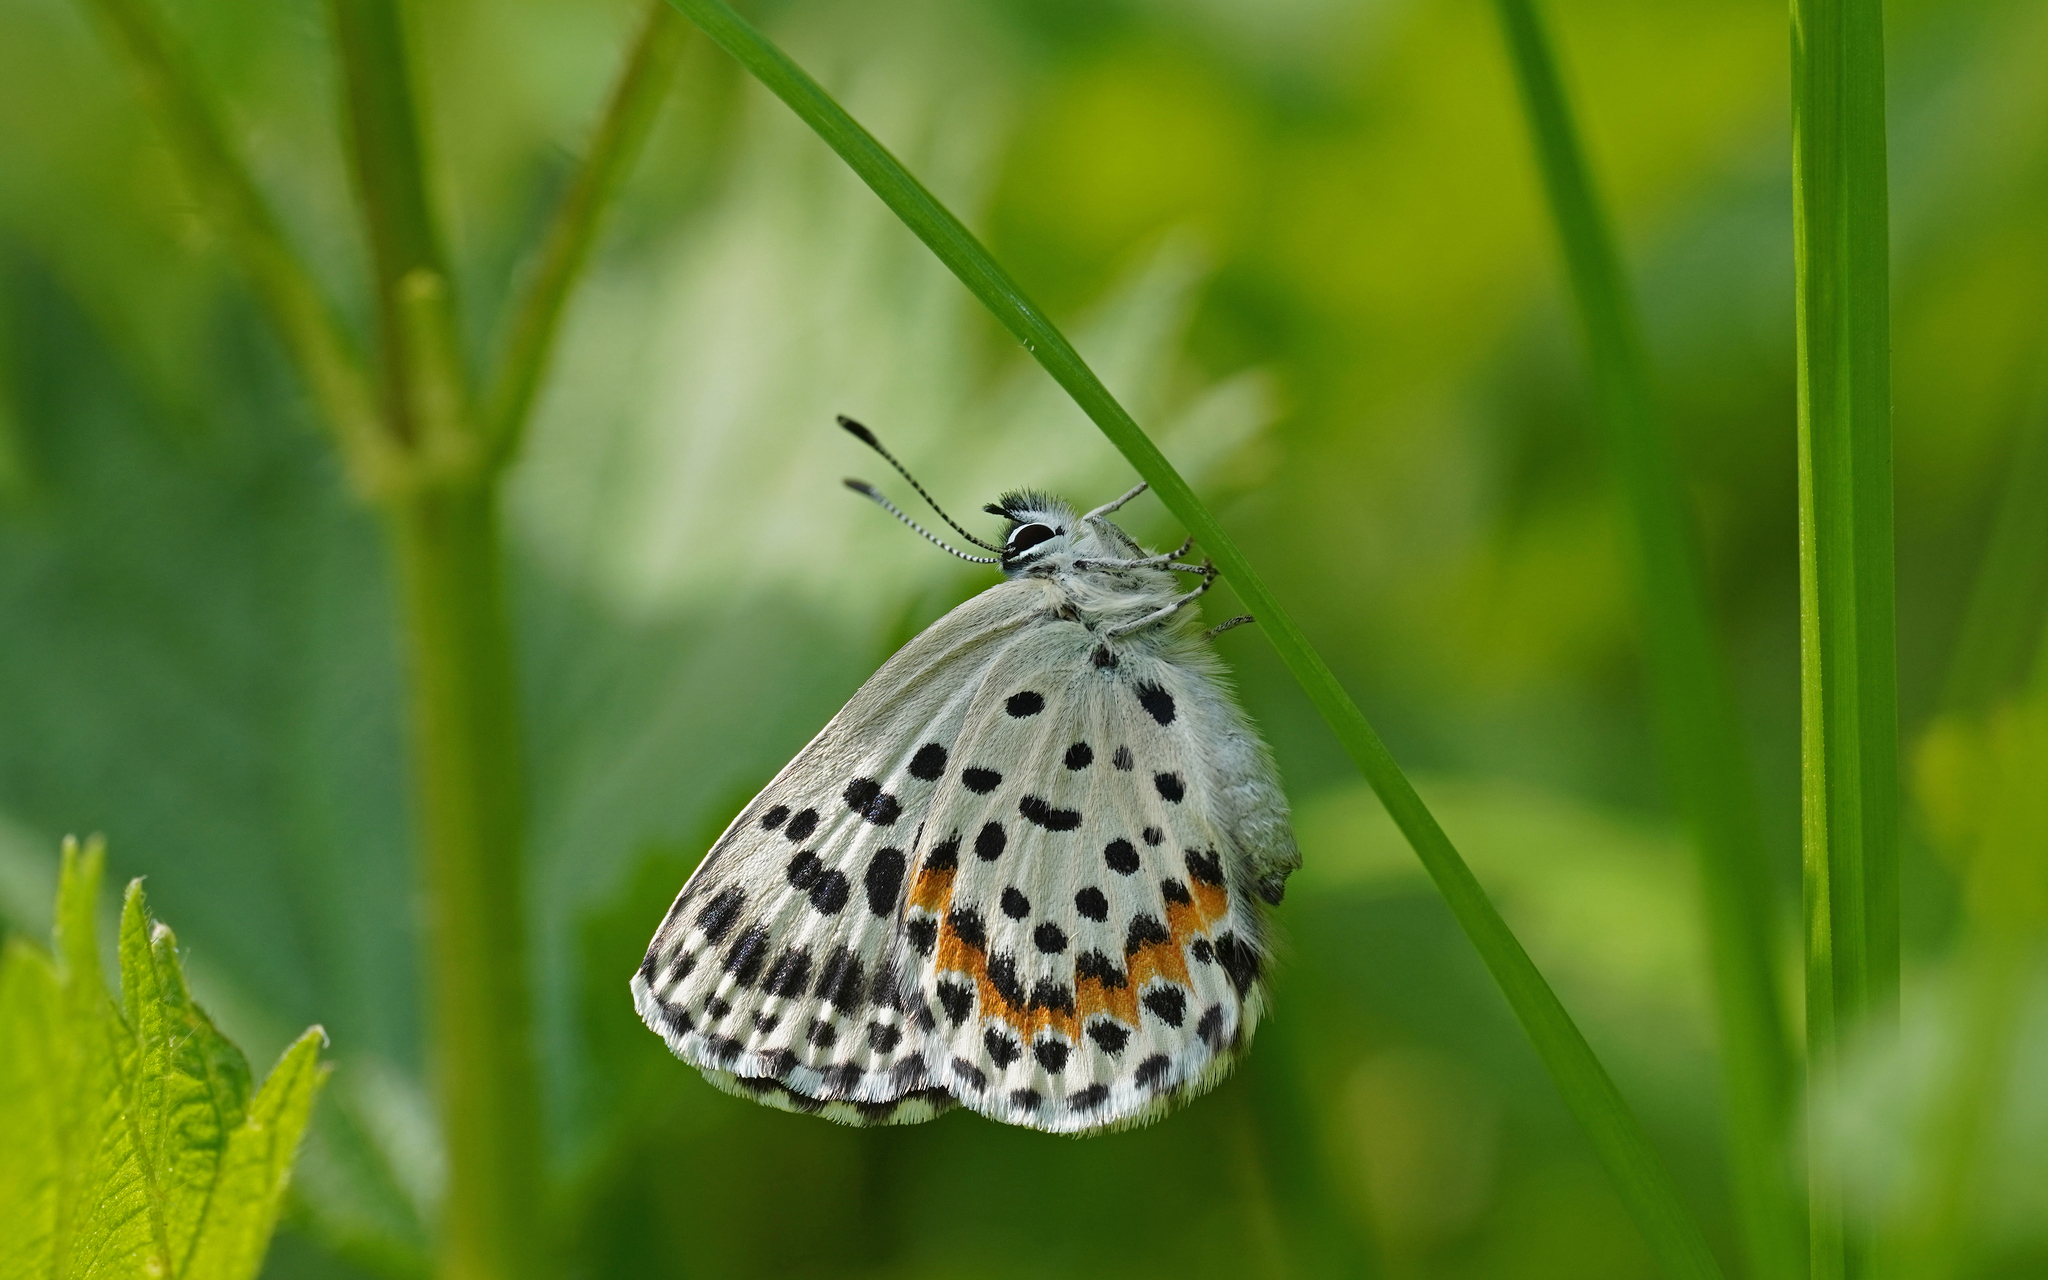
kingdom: Animalia
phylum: Arthropoda
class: Insecta
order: Lepidoptera
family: Lycaenidae
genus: Scolitantides
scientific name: Scolitantides orion
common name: Chequered blue
